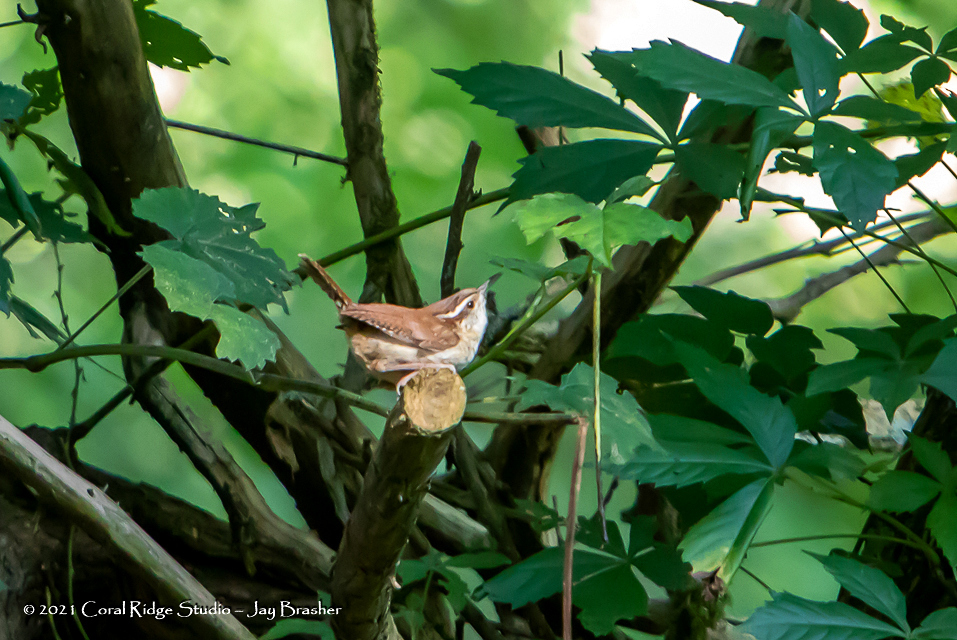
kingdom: Animalia
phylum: Chordata
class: Aves
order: Passeriformes
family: Troglodytidae
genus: Thryothorus
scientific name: Thryothorus ludovicianus
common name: Carolina wren
